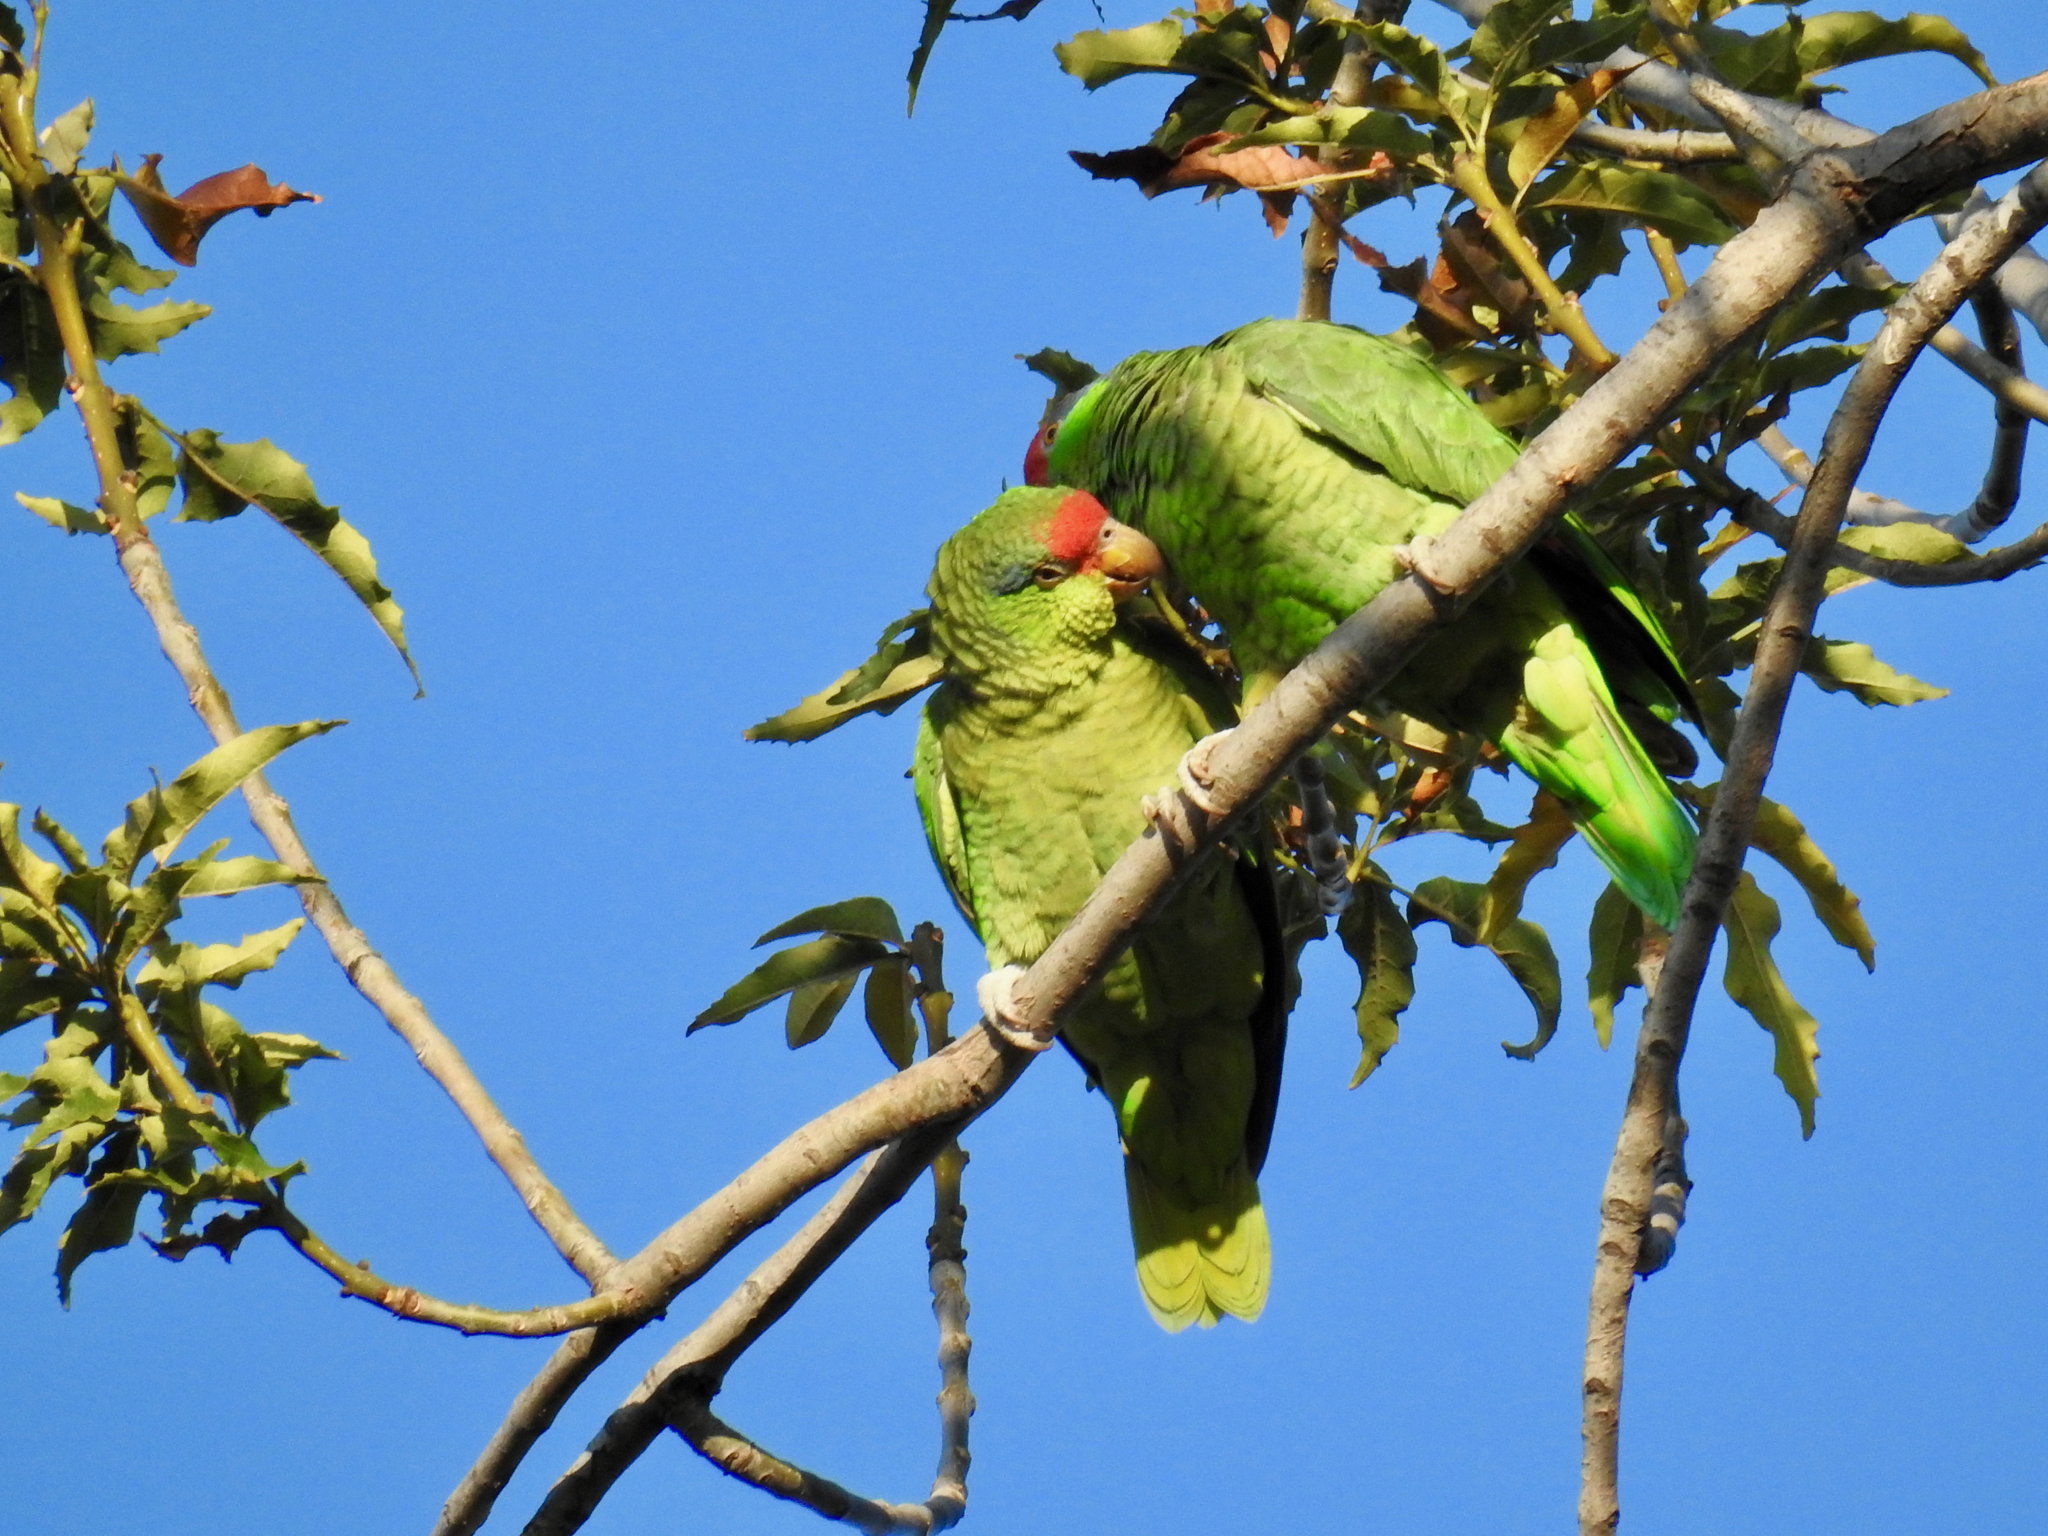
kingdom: Animalia
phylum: Chordata
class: Aves
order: Psittaciformes
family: Psittacidae
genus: Amazona
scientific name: Amazona viridigenalis
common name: Red-crowned amazon
